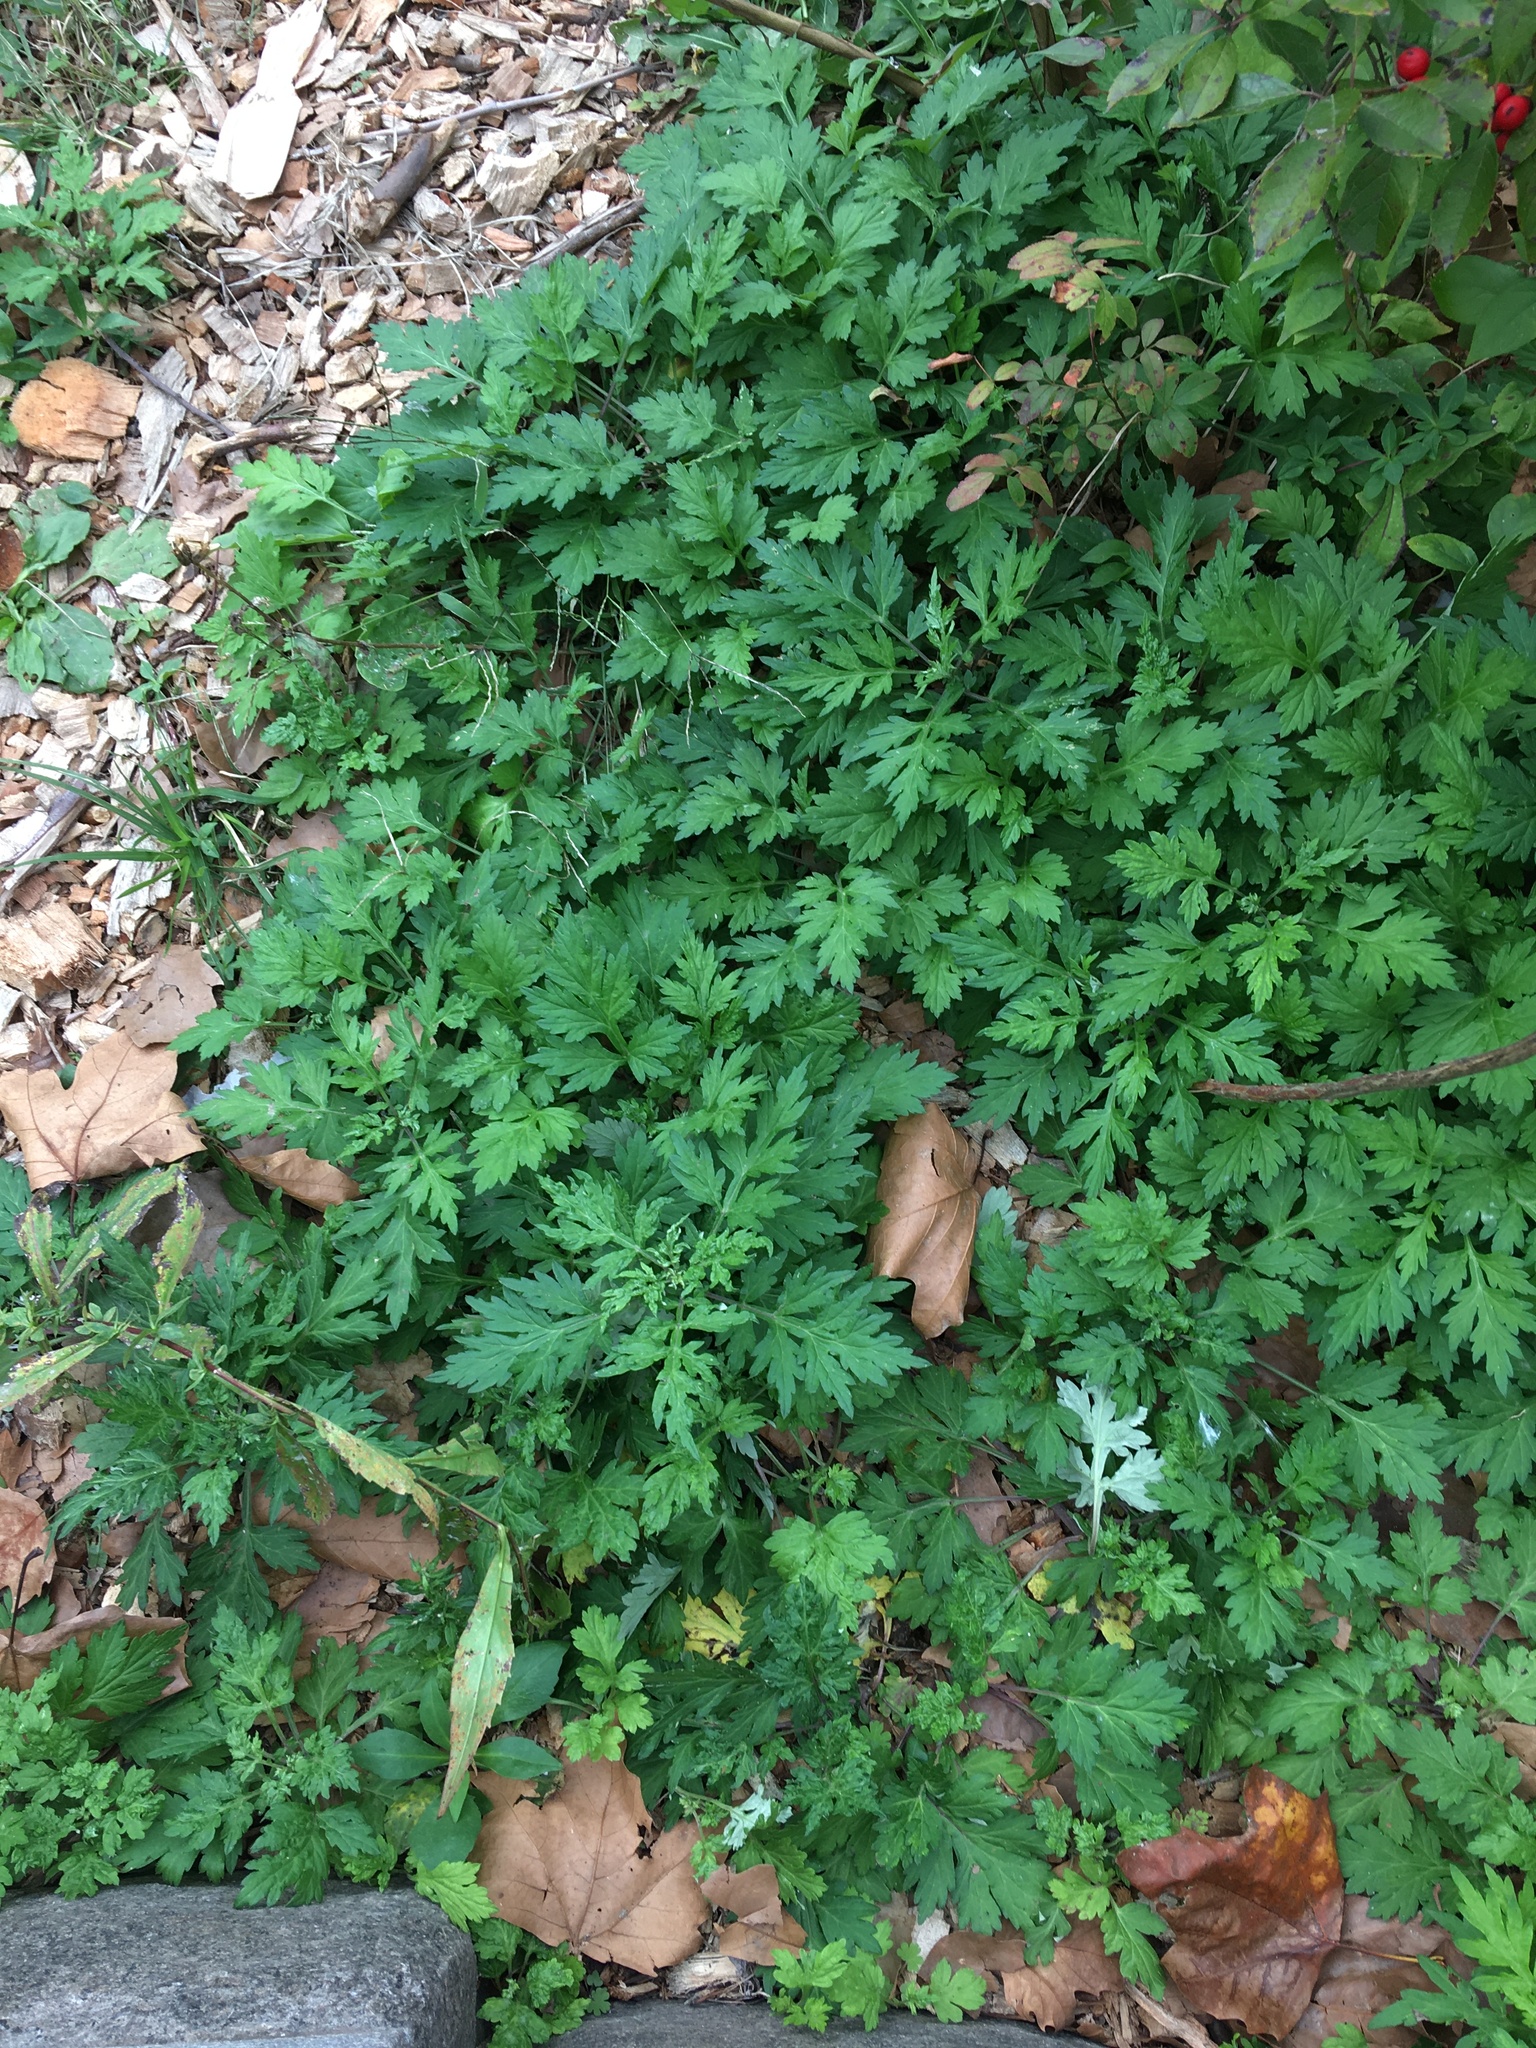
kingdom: Plantae
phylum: Tracheophyta
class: Magnoliopsida
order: Asterales
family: Asteraceae
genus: Artemisia
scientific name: Artemisia vulgaris
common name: Mugwort
